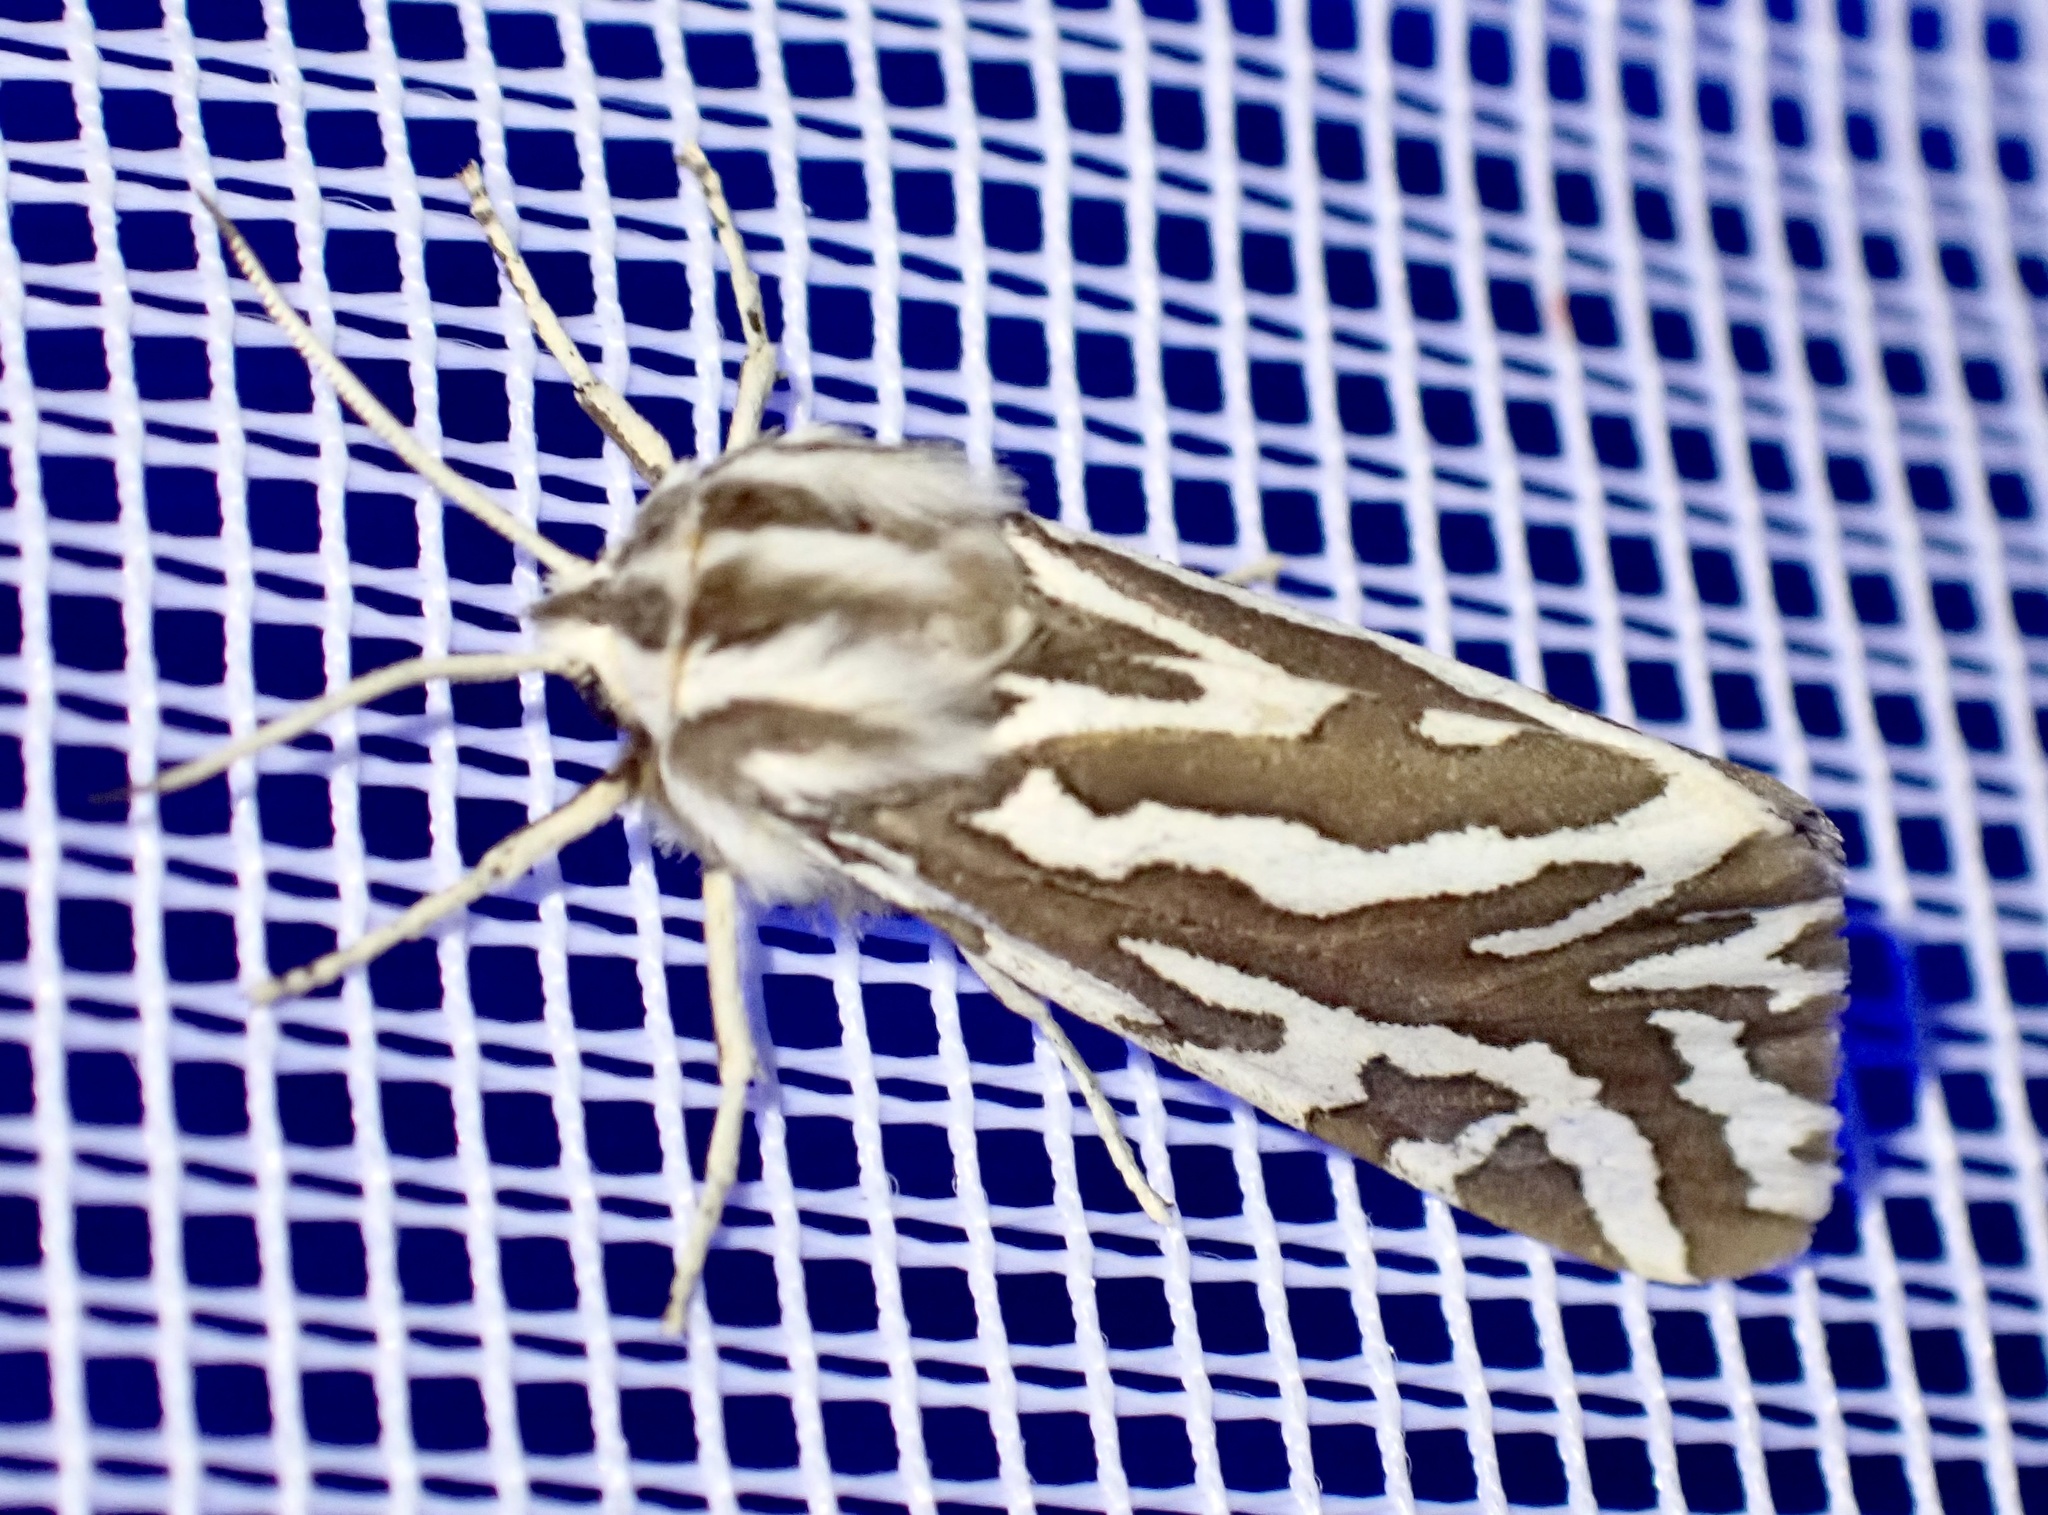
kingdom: Animalia
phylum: Arthropoda
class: Insecta
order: Lepidoptera
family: Erebidae
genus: Paralacydes
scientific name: Paralacydes vocula
